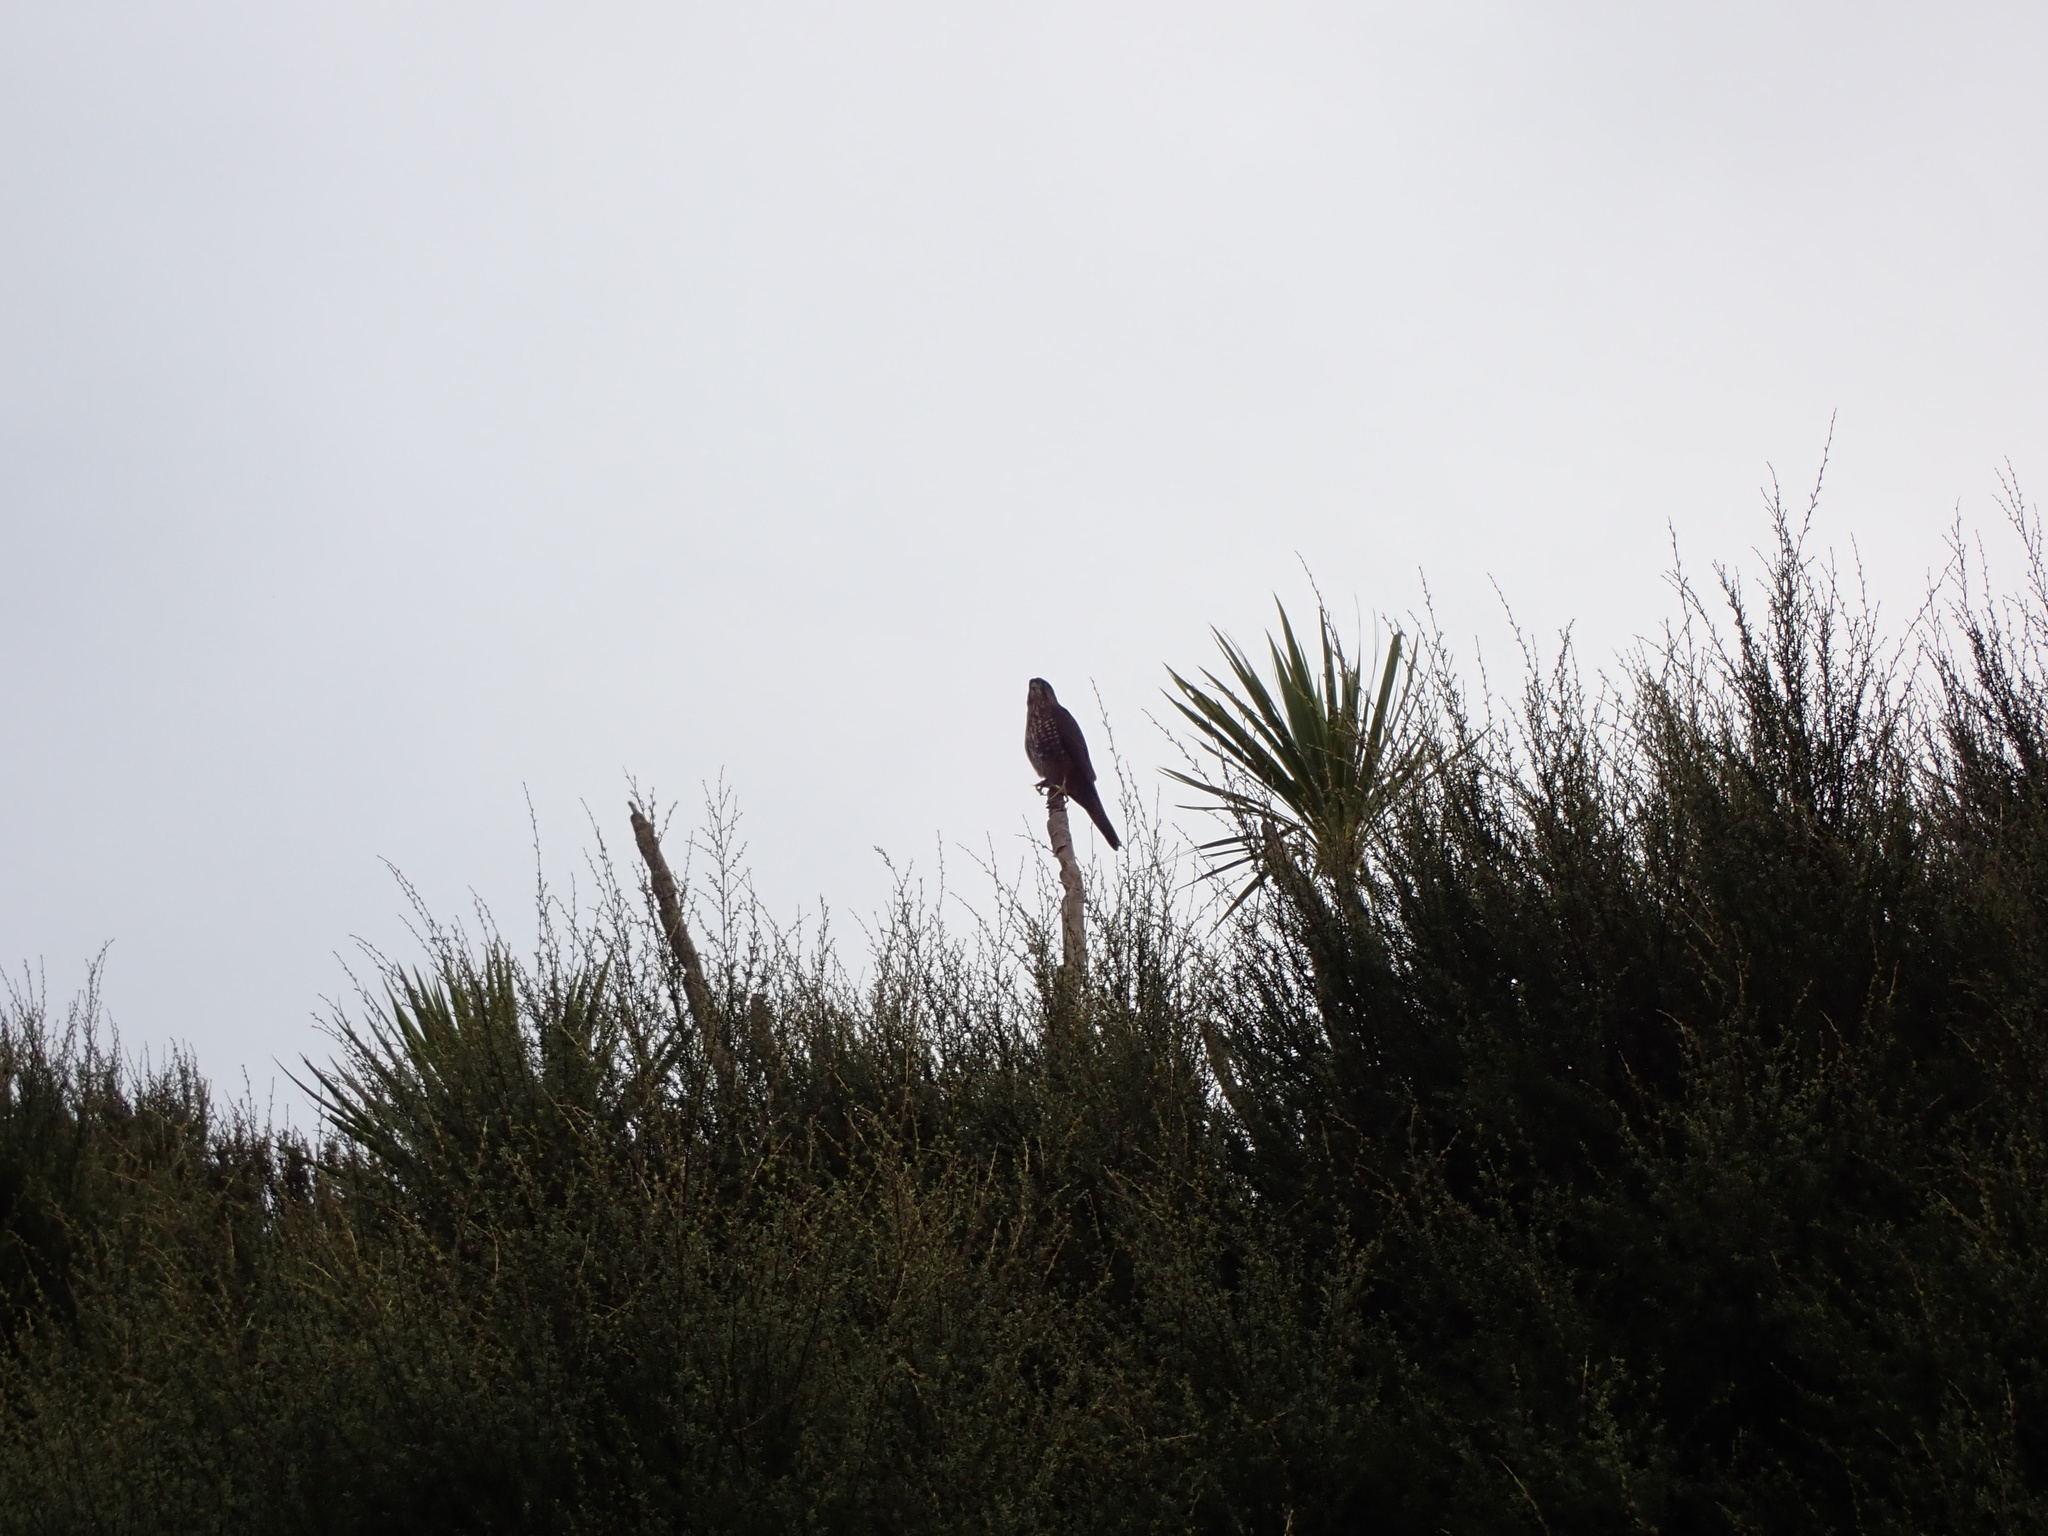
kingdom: Animalia
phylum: Chordata
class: Aves
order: Falconiformes
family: Falconidae
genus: Falco
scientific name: Falco novaeseelandiae
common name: New zealand falcon
